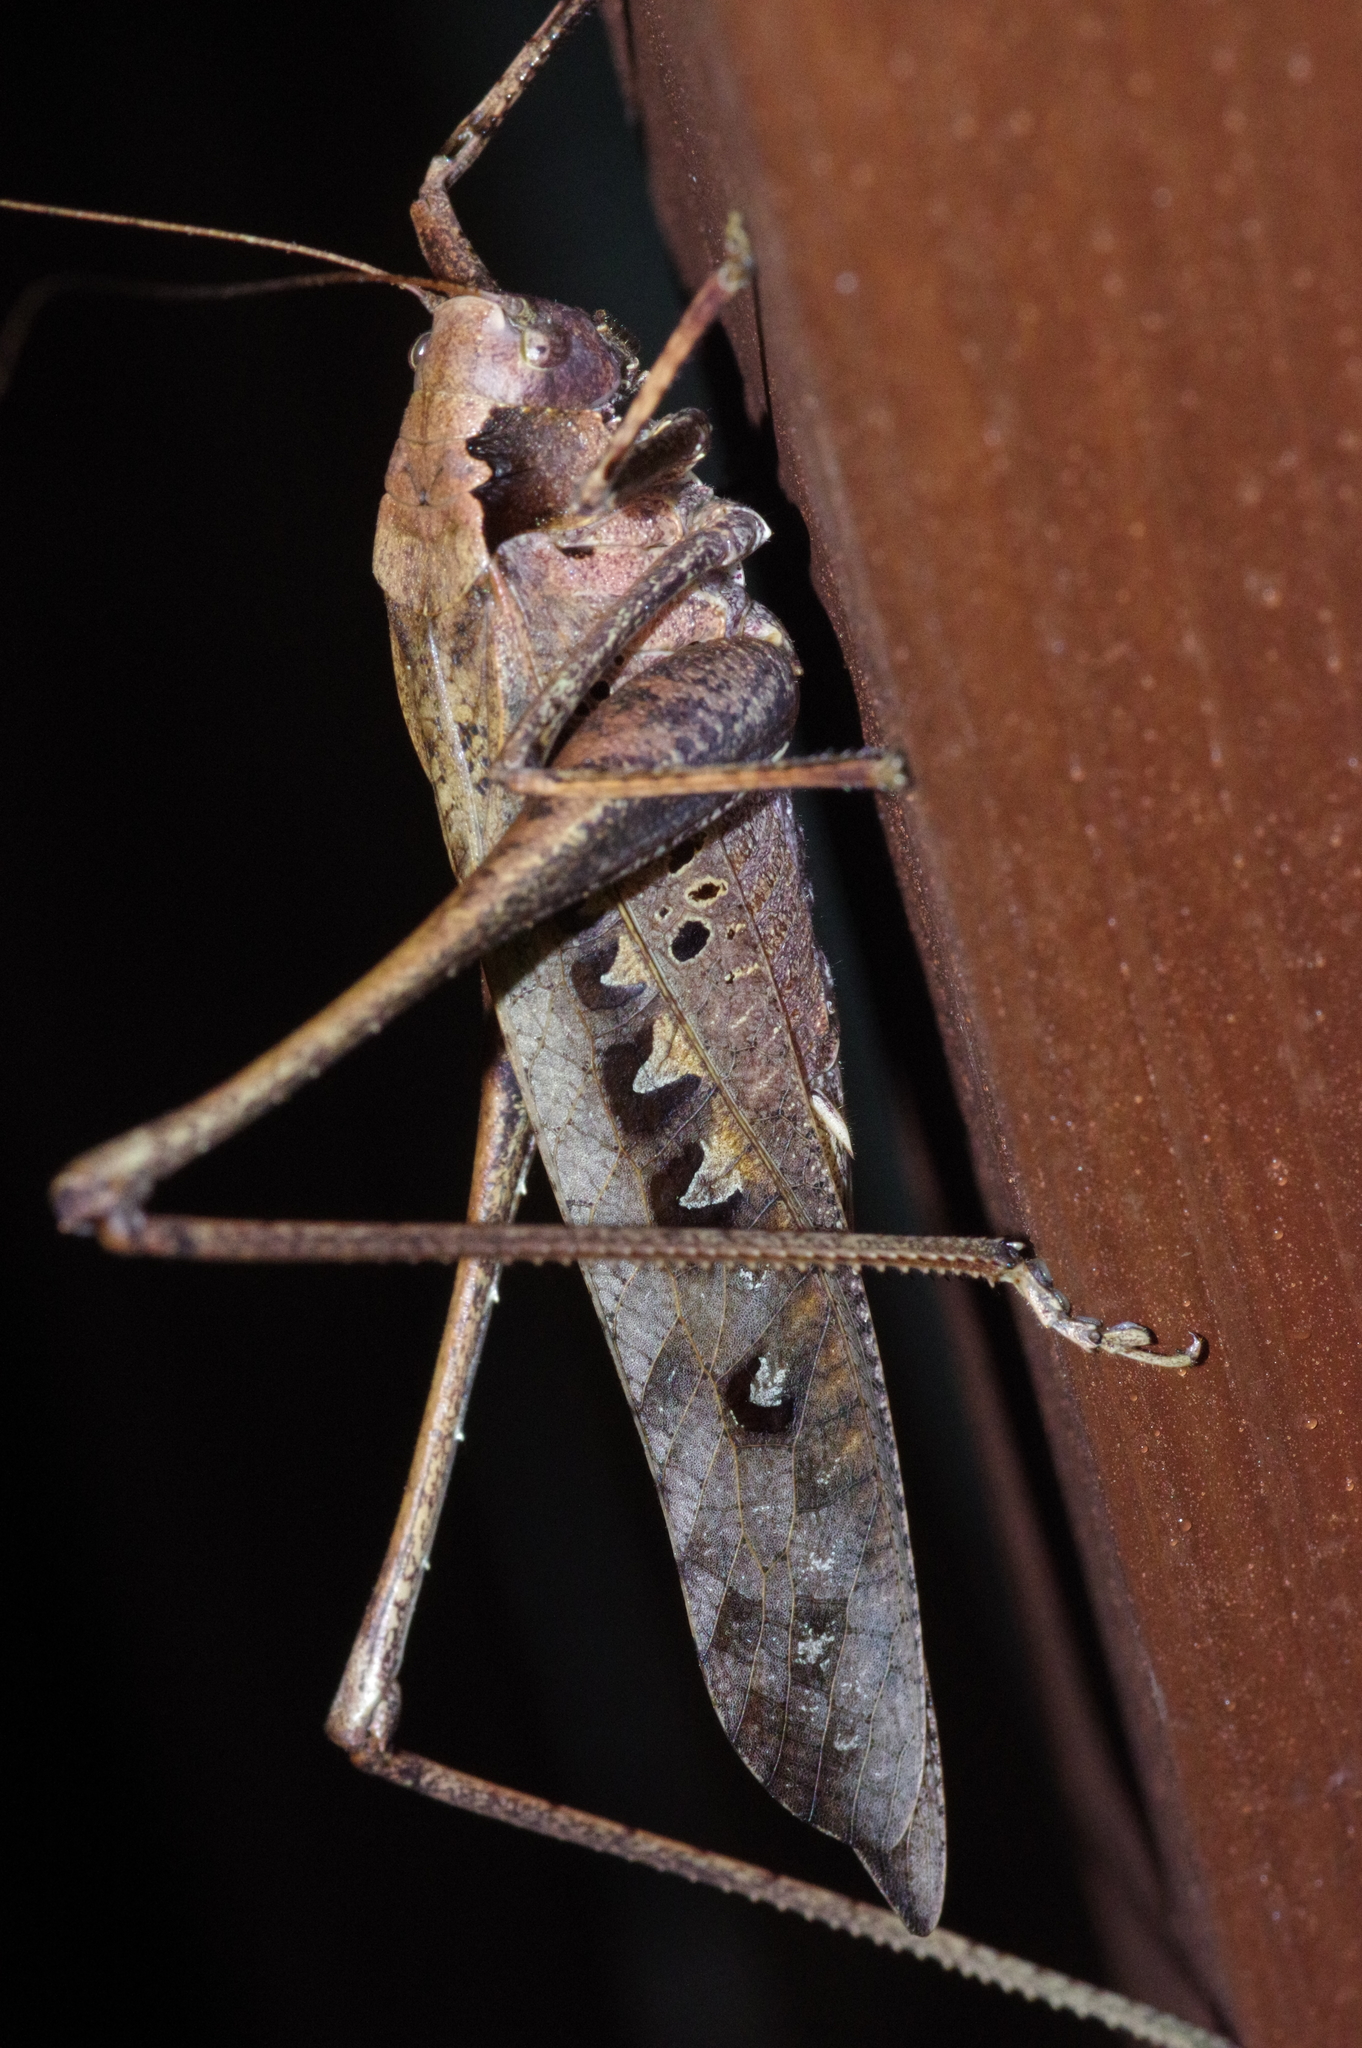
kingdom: Animalia
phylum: Arthropoda
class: Insecta
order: Orthoptera
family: Tettigoniidae
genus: Mecopoda
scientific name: Mecopoda elongata
